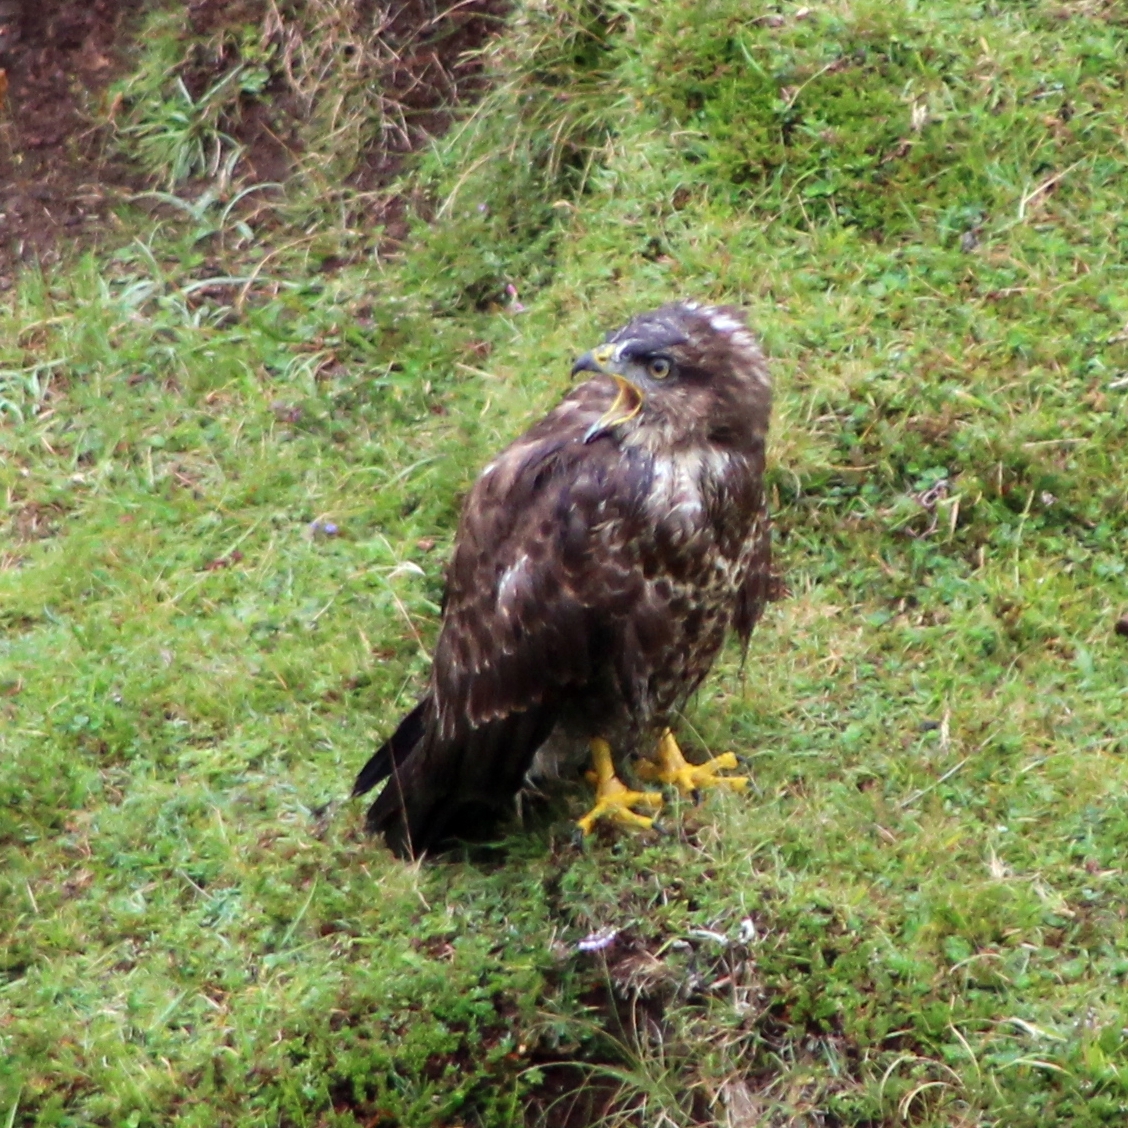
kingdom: Animalia
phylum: Chordata
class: Aves
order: Accipitriformes
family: Accipitridae
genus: Buteo
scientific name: Buteo buteo
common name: Common buzzard
